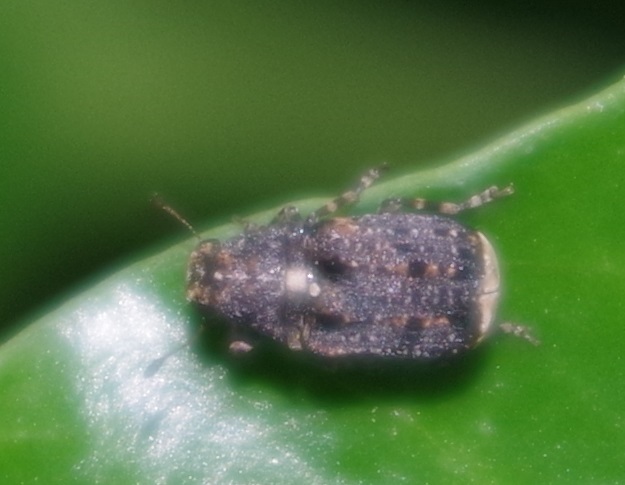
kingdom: Animalia
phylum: Arthropoda
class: Insecta
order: Coleoptera
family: Anthribidae
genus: Dissoleucas
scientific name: Dissoleucas niveirostris
